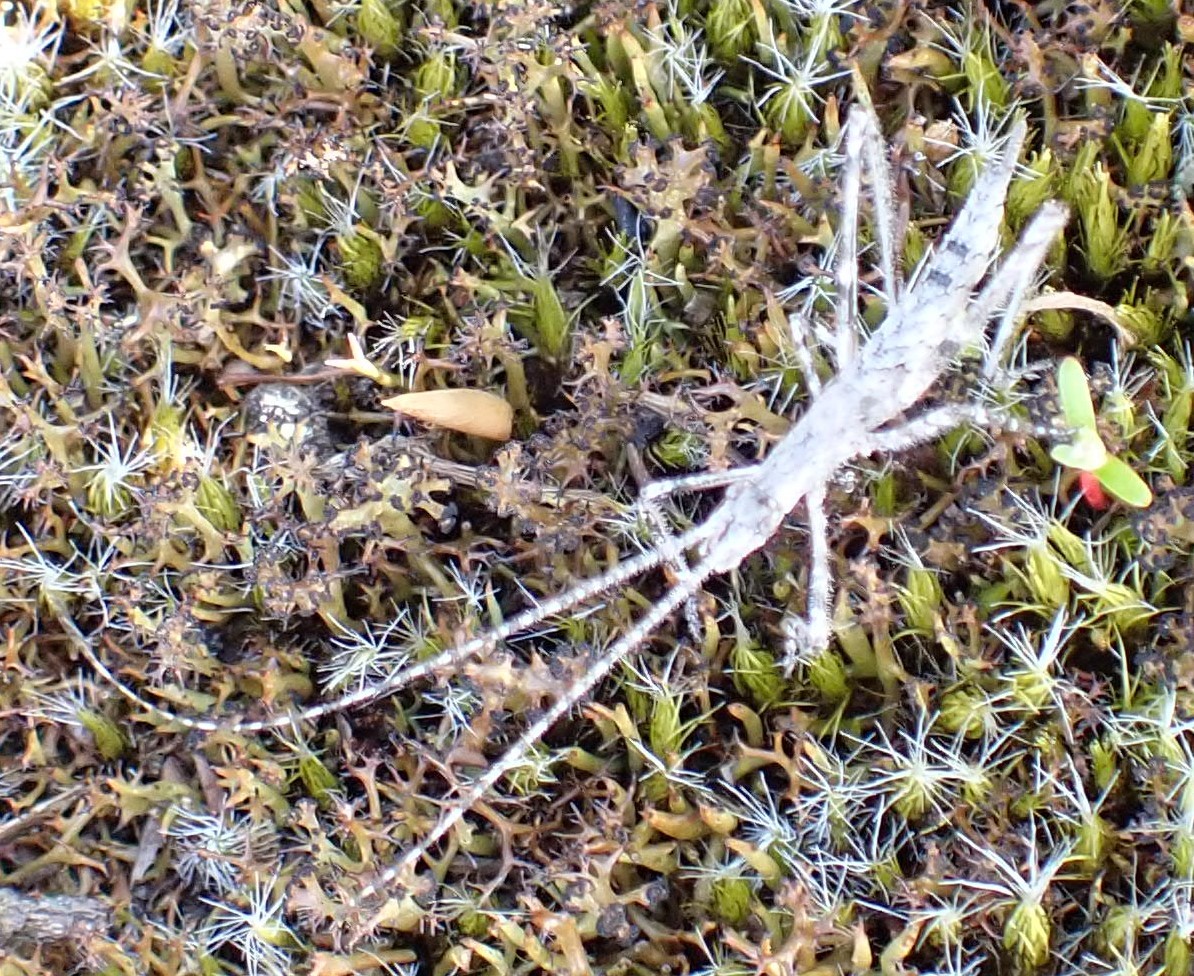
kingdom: Animalia
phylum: Arthropoda
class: Insecta
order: Orthoptera
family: Tettigoniidae
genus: Zaprochilus
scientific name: Zaprochilus australis
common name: Australian twig-mimicking katydid
